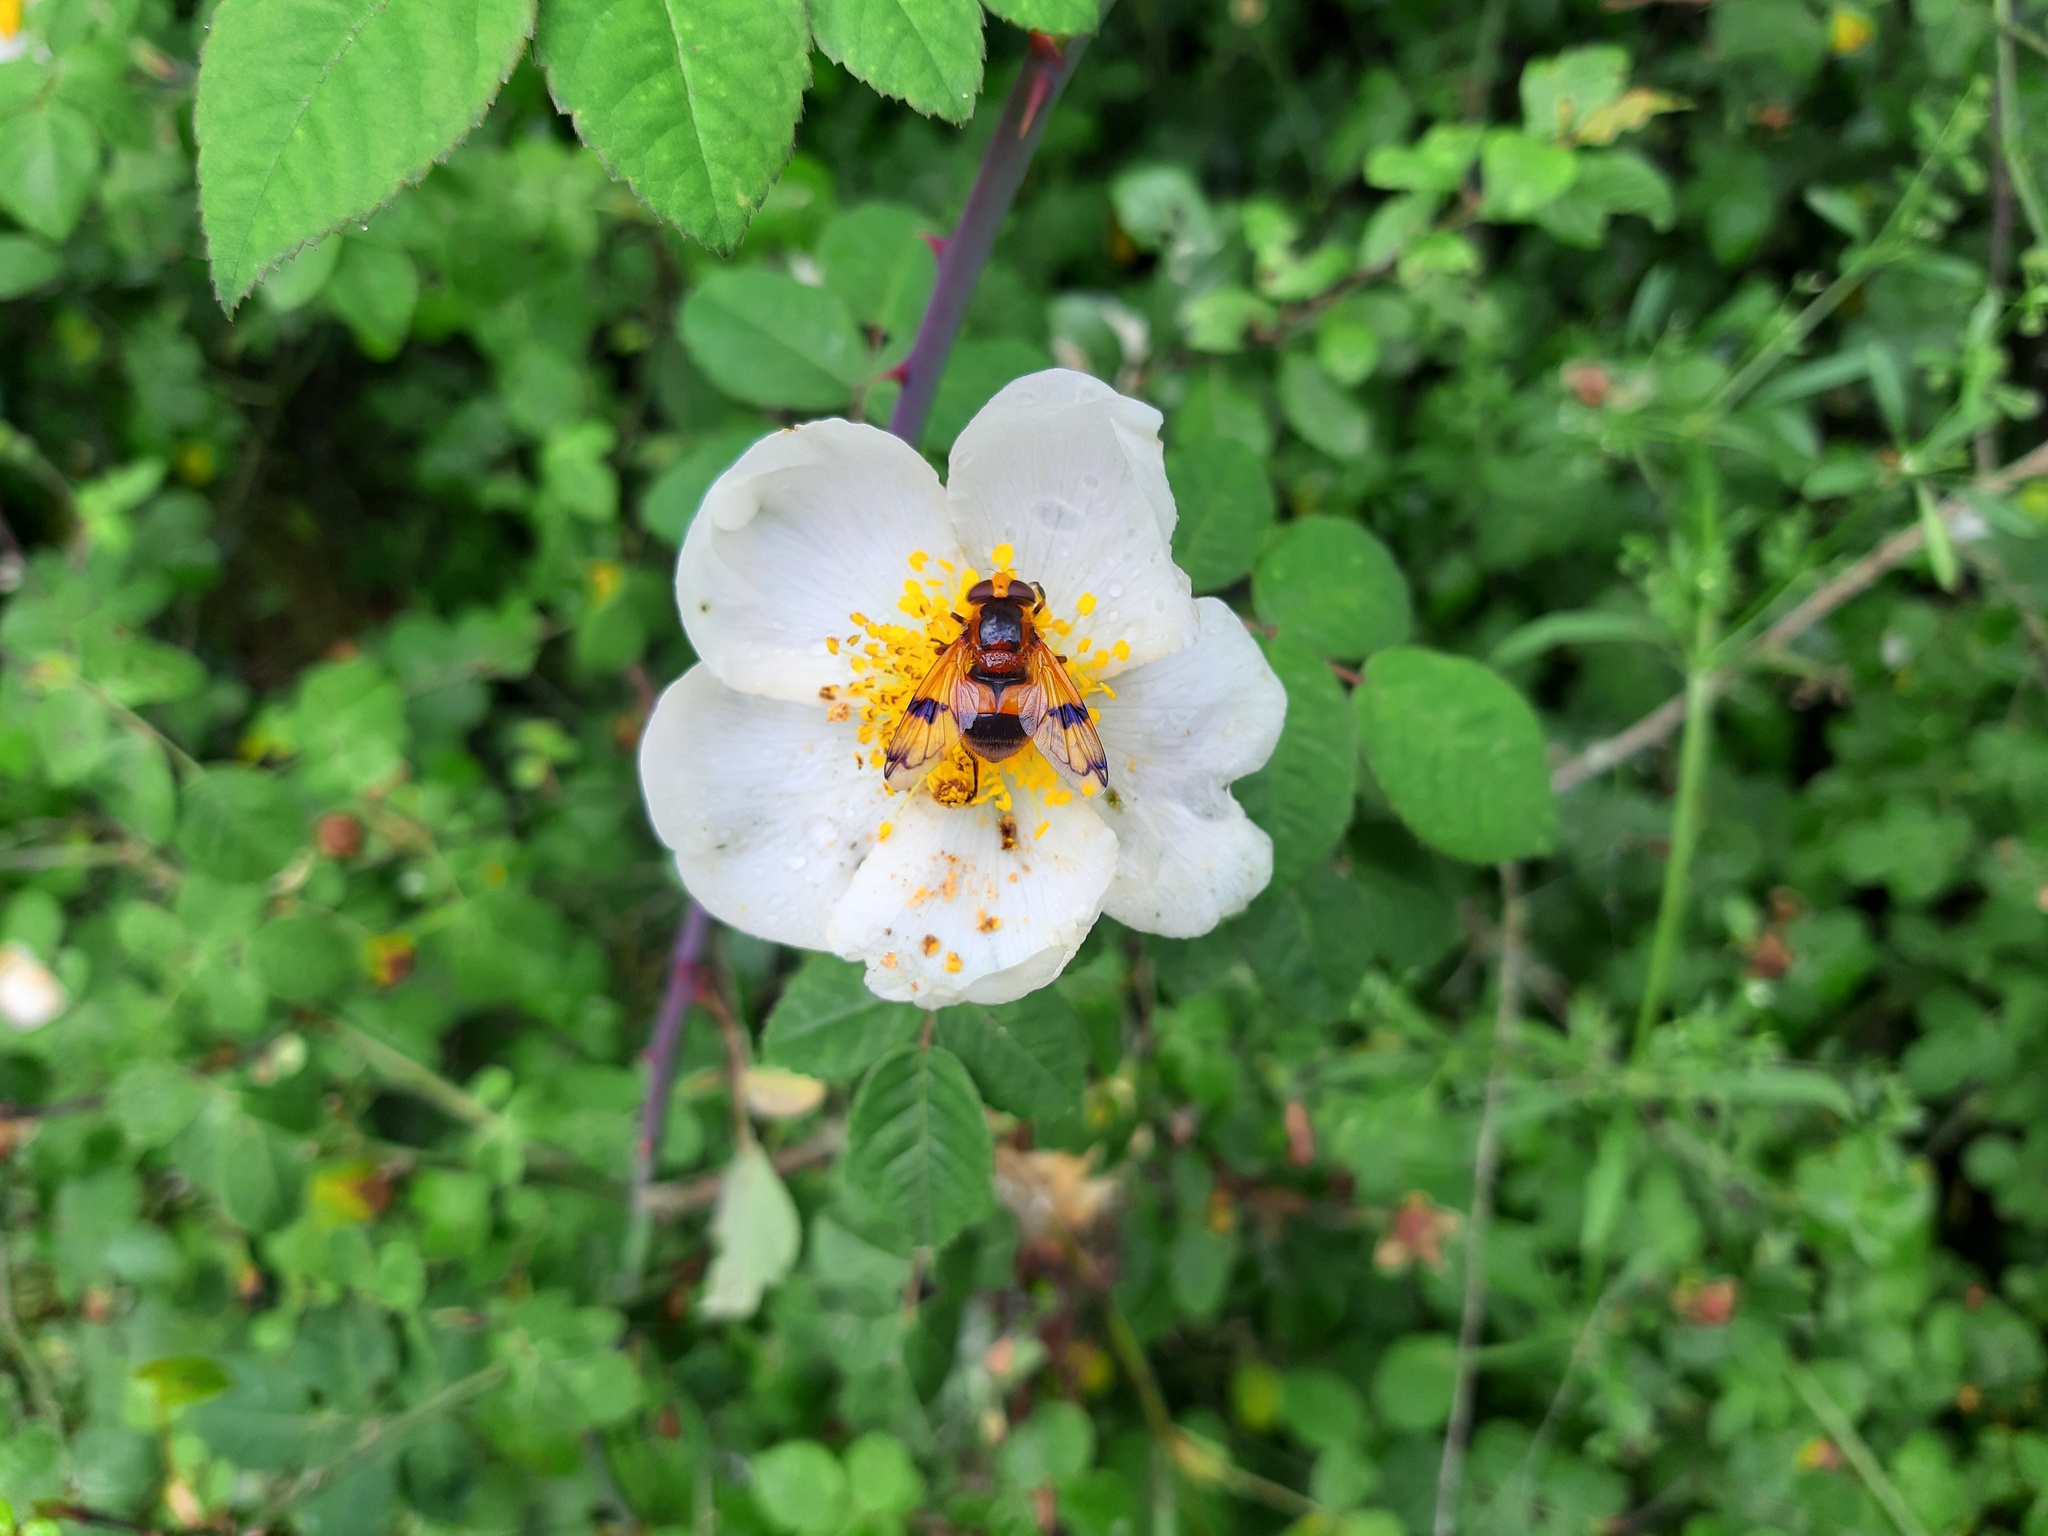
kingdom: Animalia
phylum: Arthropoda
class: Insecta
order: Diptera
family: Syrphidae
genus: Volucella
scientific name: Volucella inflata
